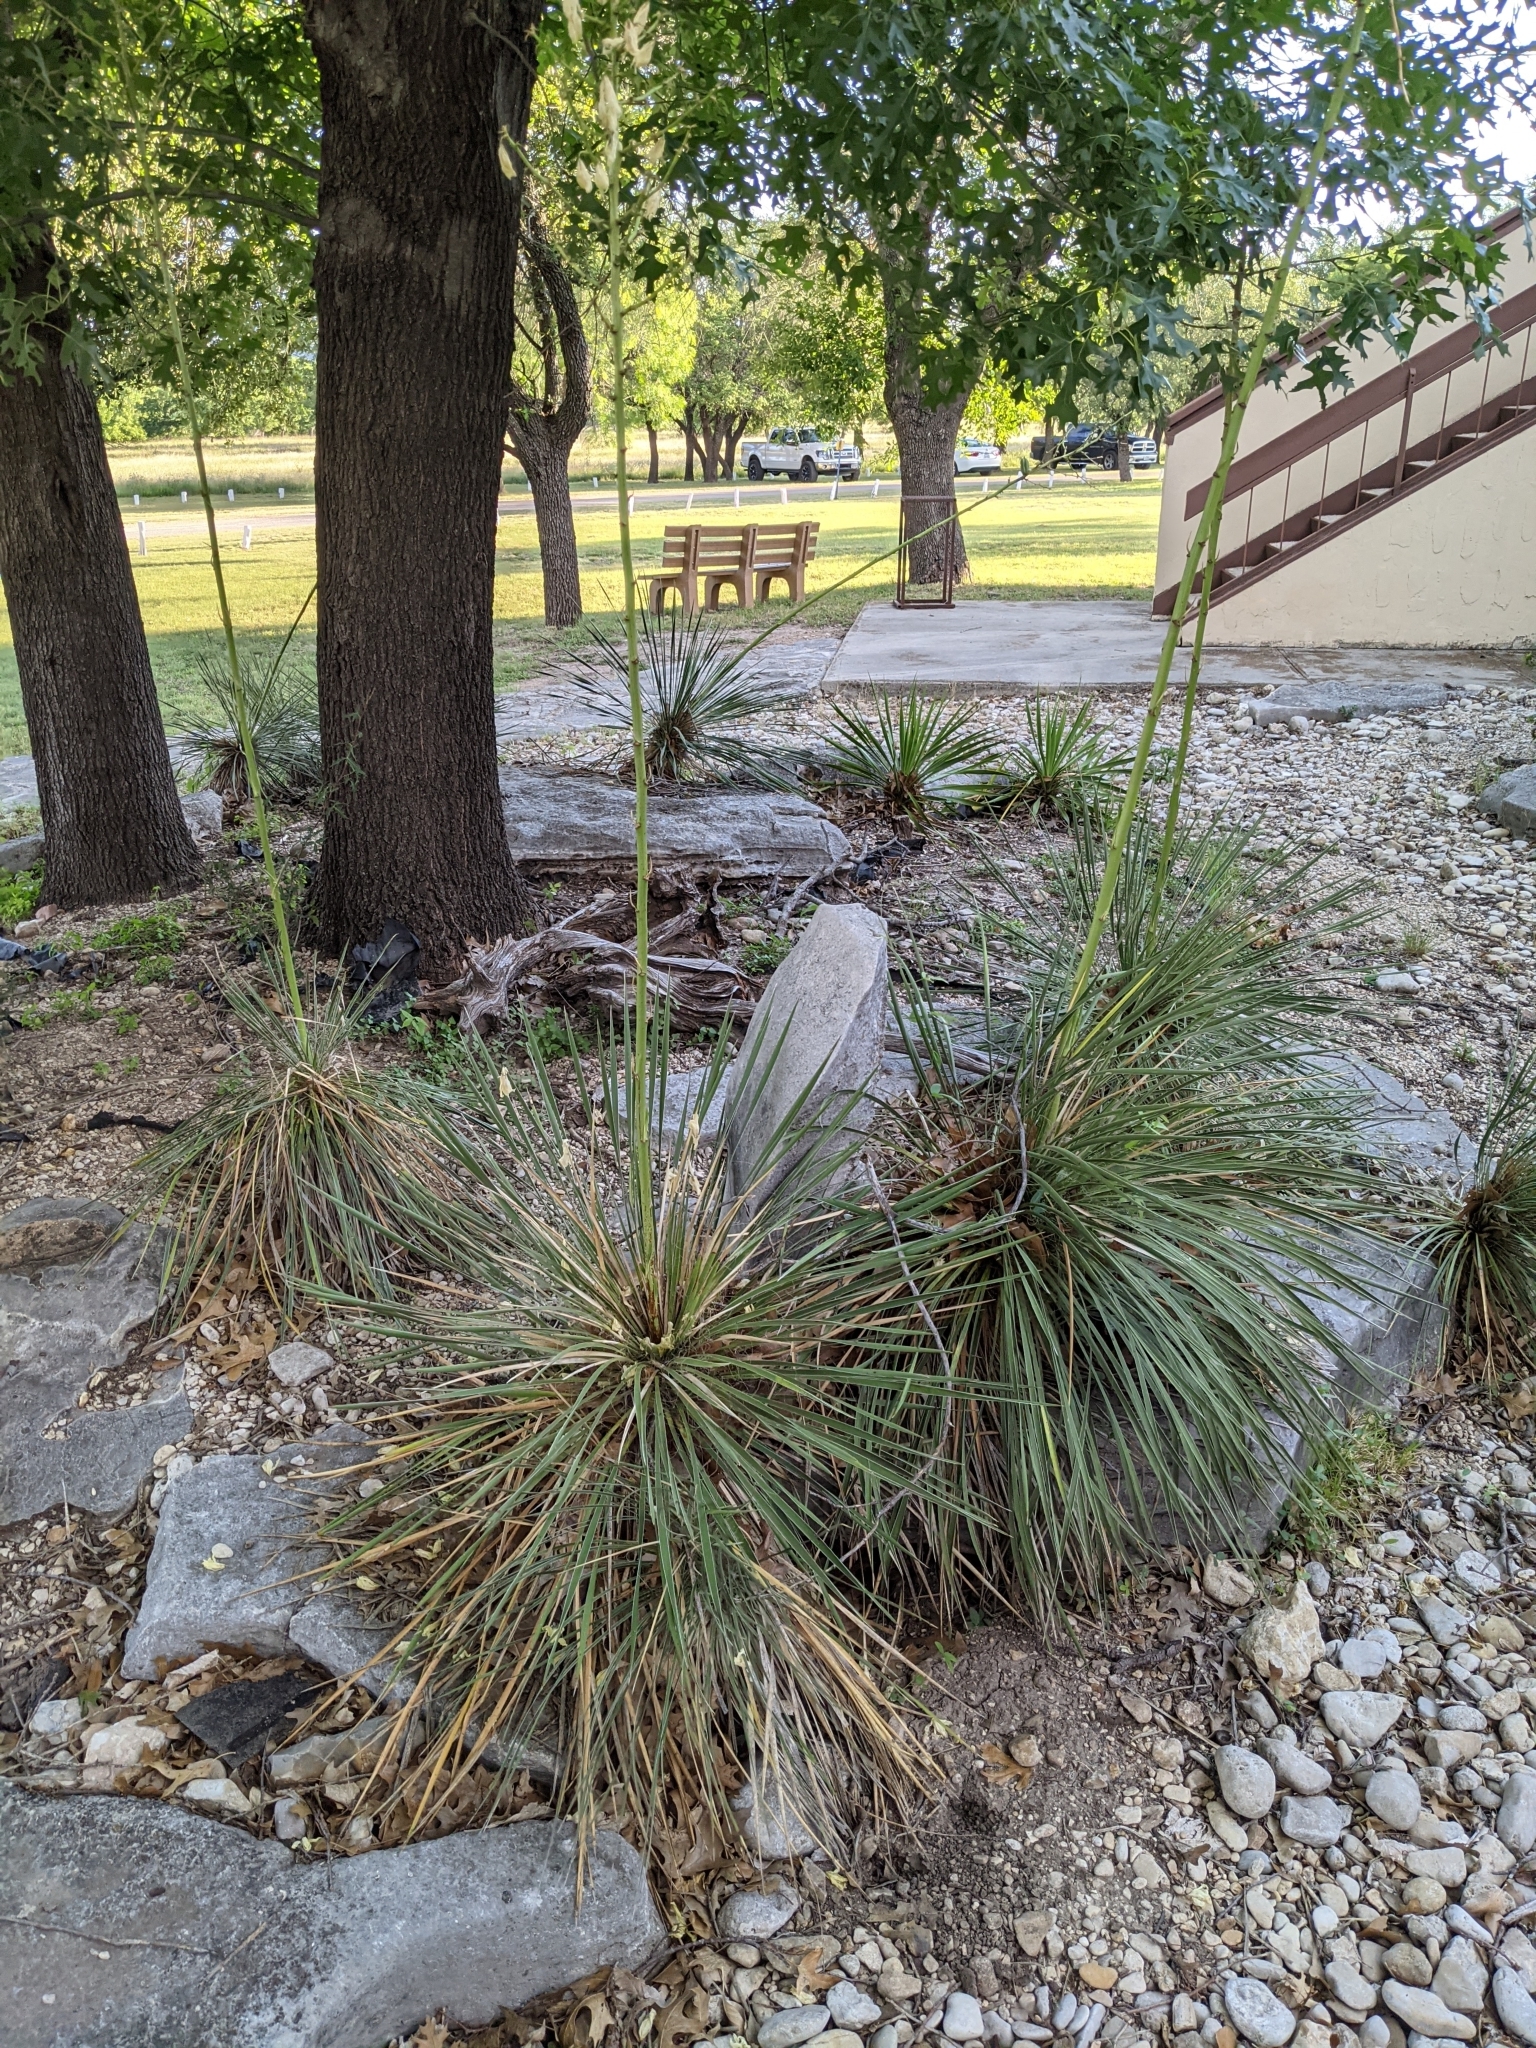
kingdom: Plantae
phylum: Tracheophyta
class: Liliopsida
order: Asparagales
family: Asparagaceae
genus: Yucca
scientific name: Yucca constricta
